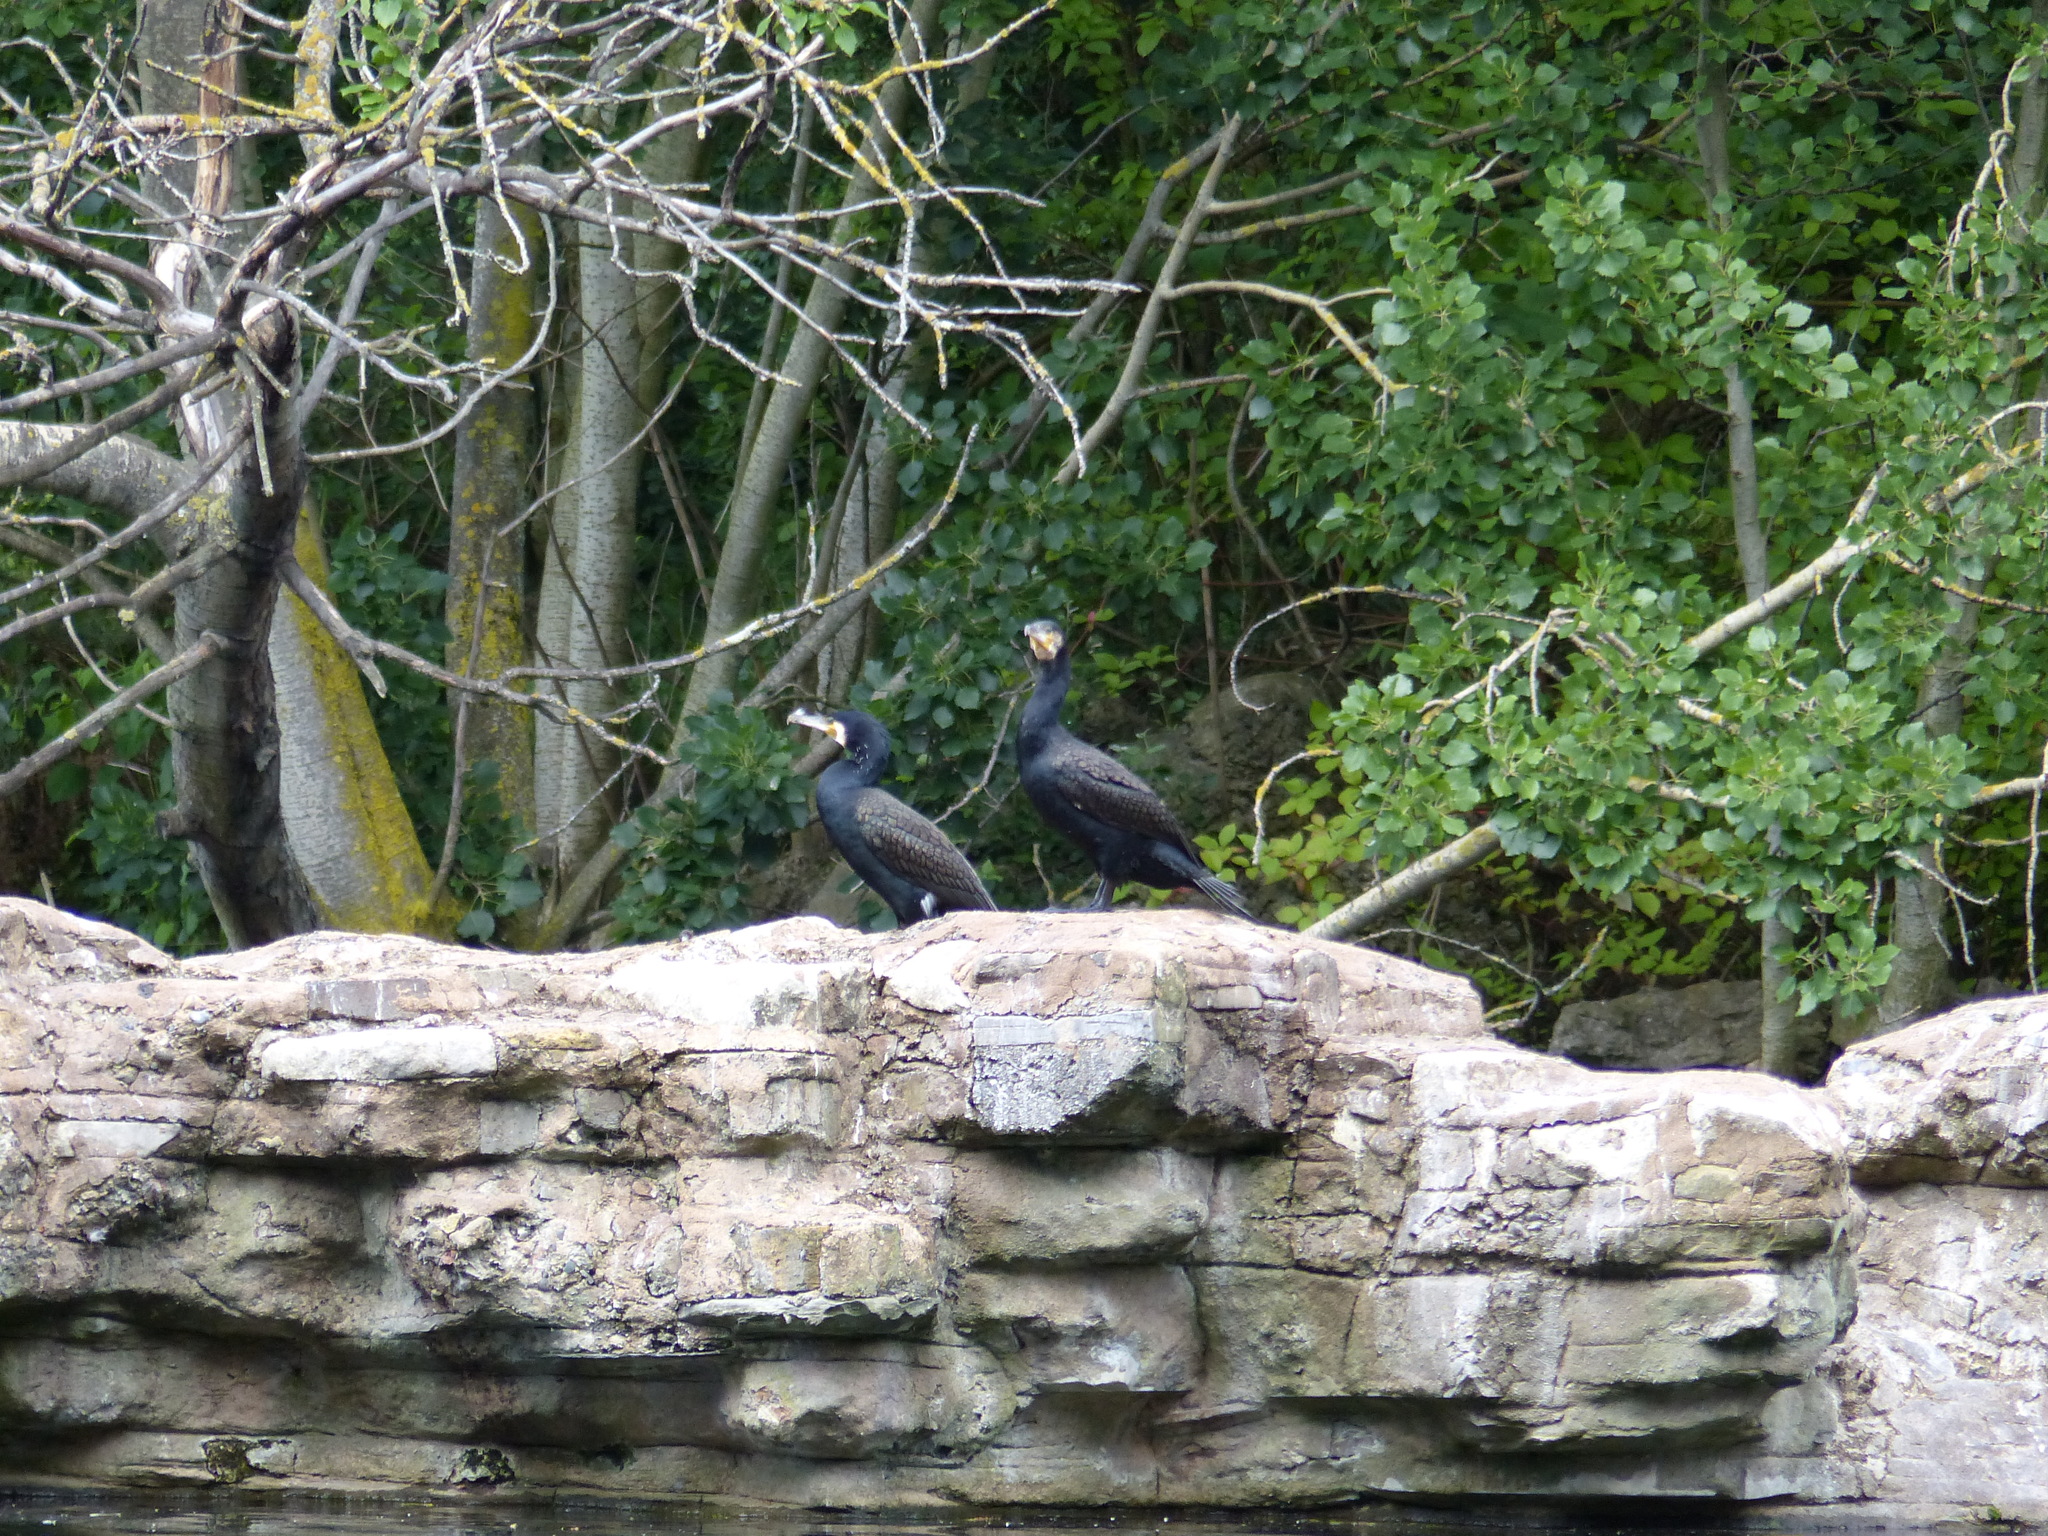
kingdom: Animalia
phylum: Chordata
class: Aves
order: Suliformes
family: Phalacrocoracidae
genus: Phalacrocorax
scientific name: Phalacrocorax carbo
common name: Great cormorant
